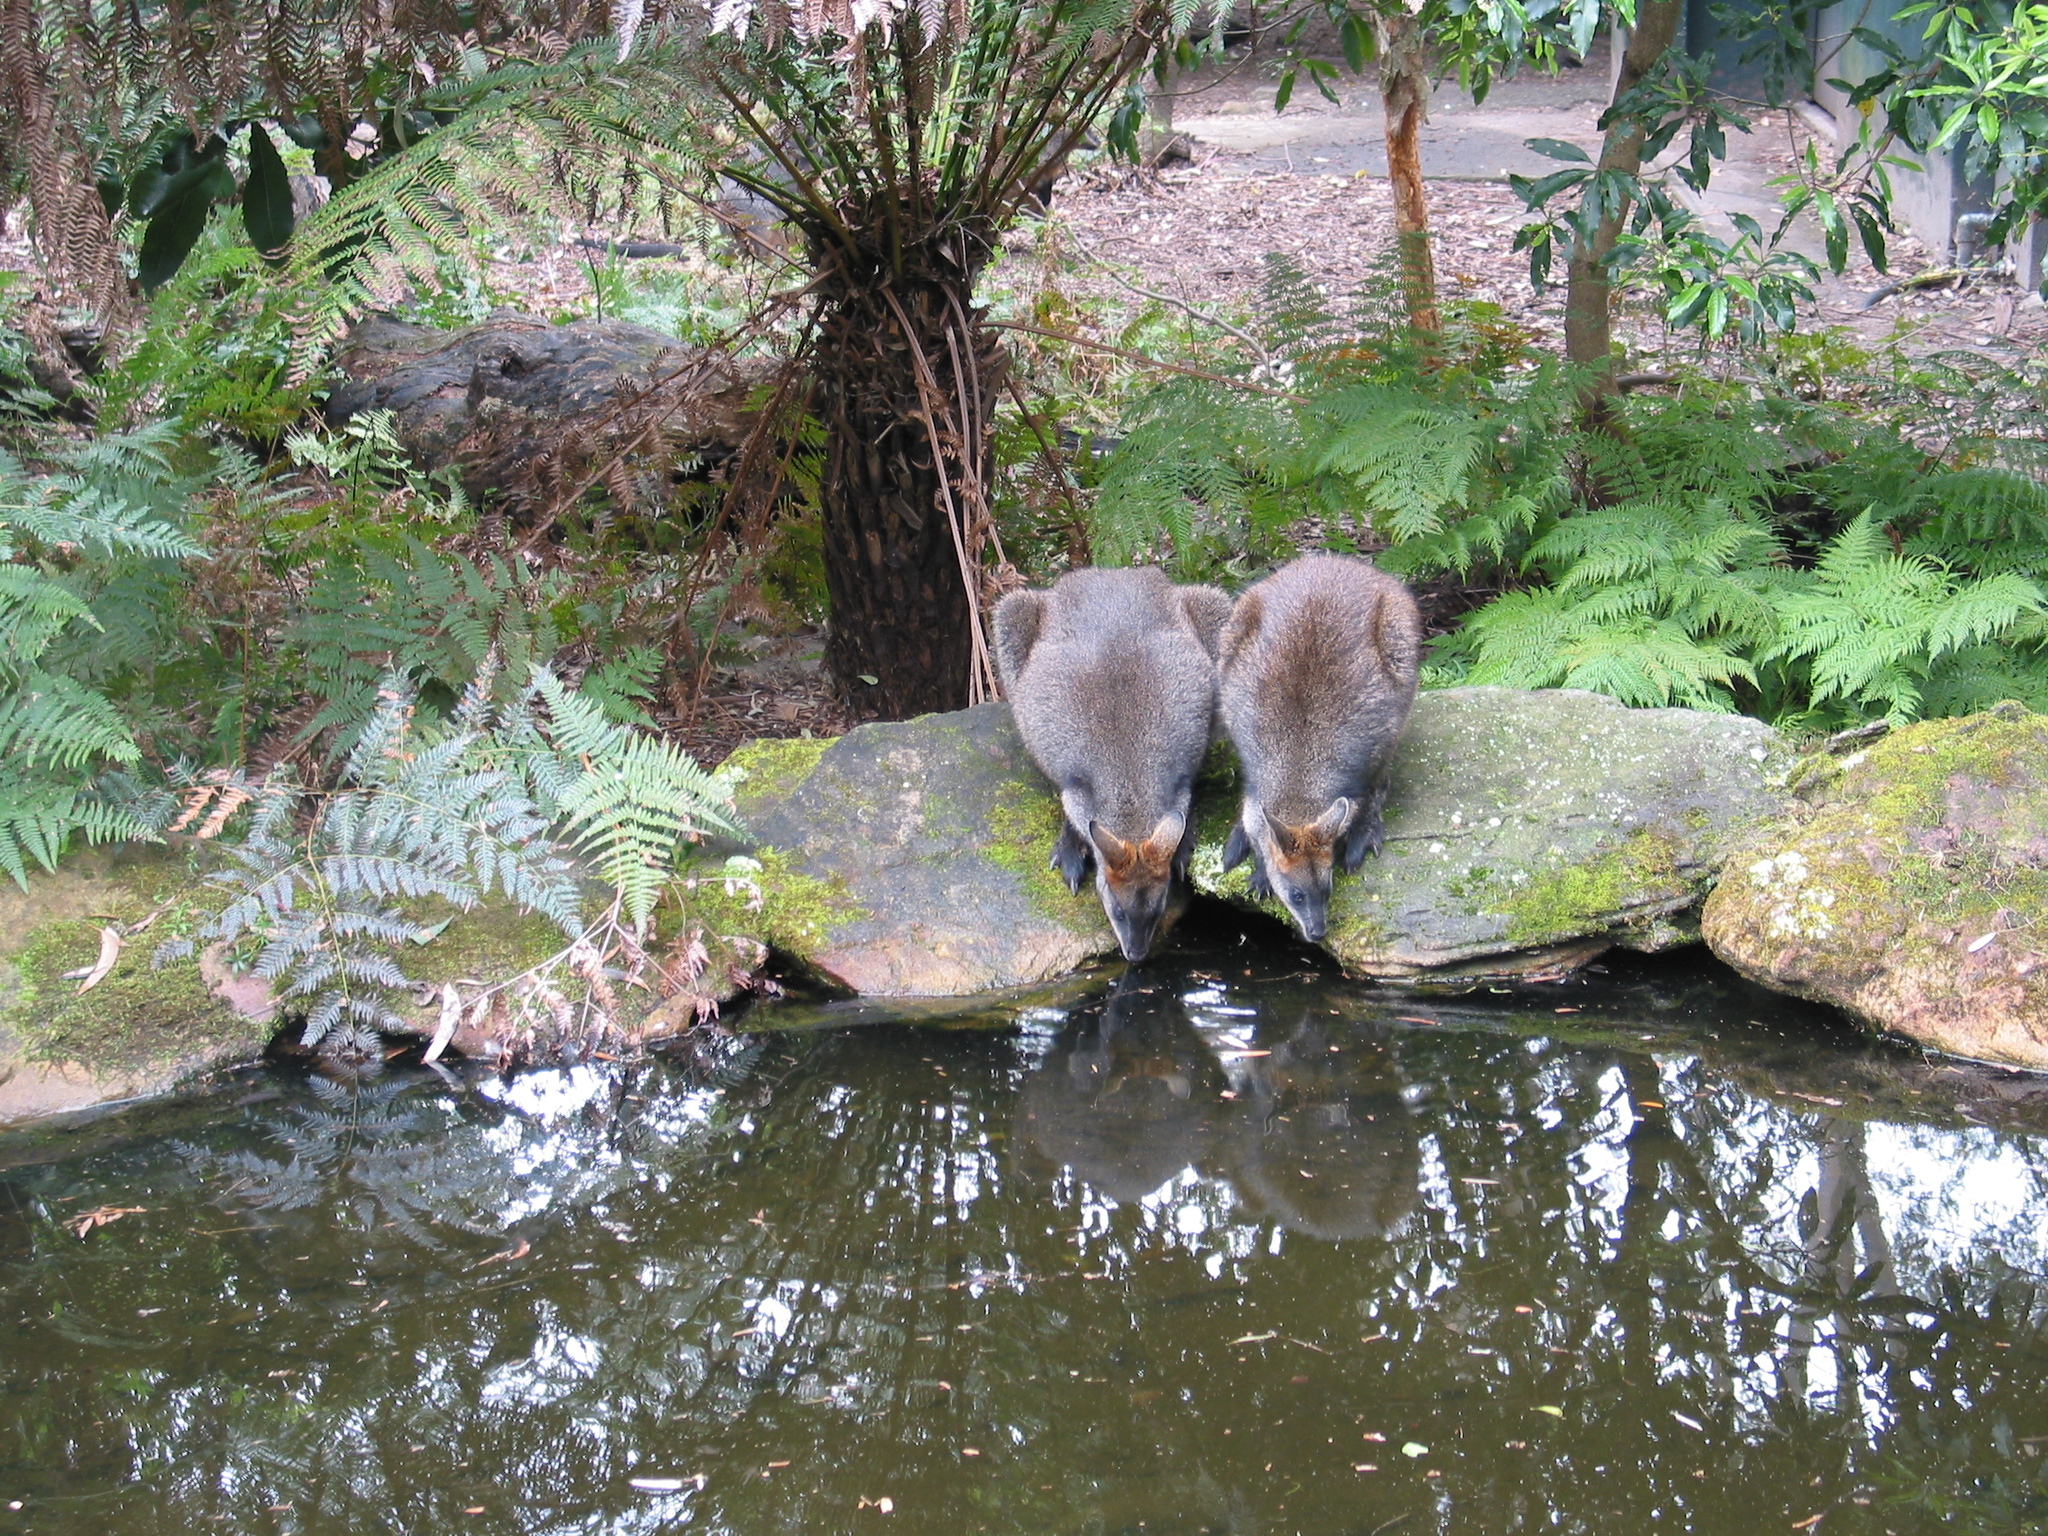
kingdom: Animalia
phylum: Chordata
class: Mammalia
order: Diprotodontia
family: Macropodidae
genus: Wallabia
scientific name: Wallabia bicolor
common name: Swamp wallaby
